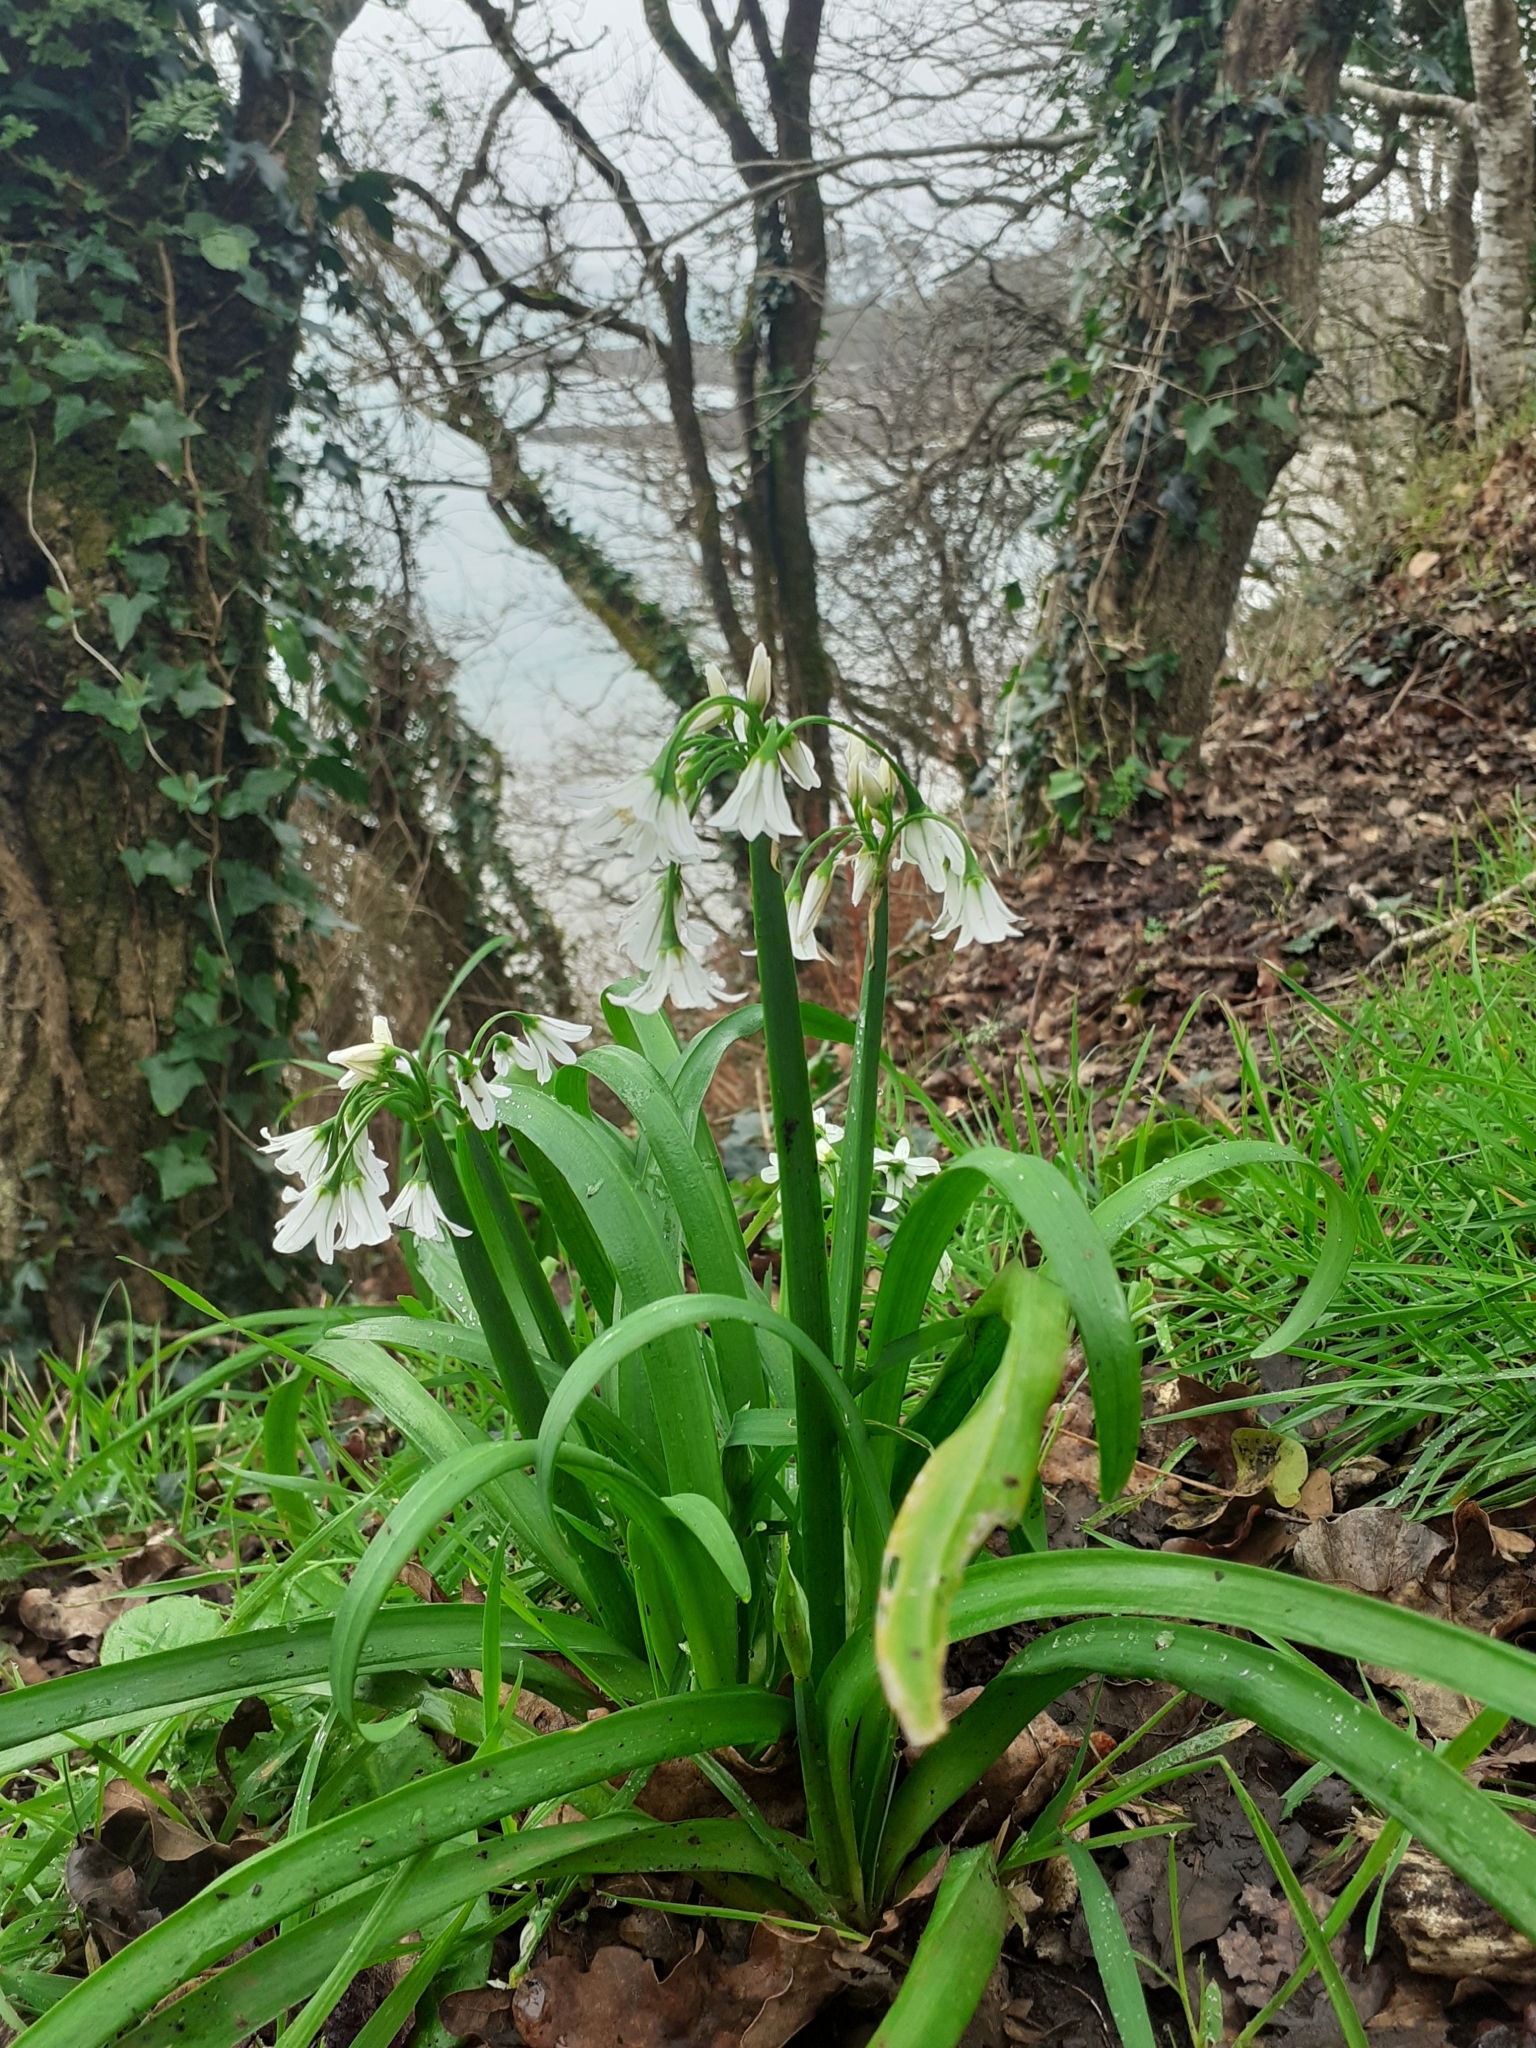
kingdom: Plantae
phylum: Tracheophyta
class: Liliopsida
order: Asparagales
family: Amaryllidaceae
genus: Allium
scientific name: Allium triquetrum
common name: Three-cornered garlic
